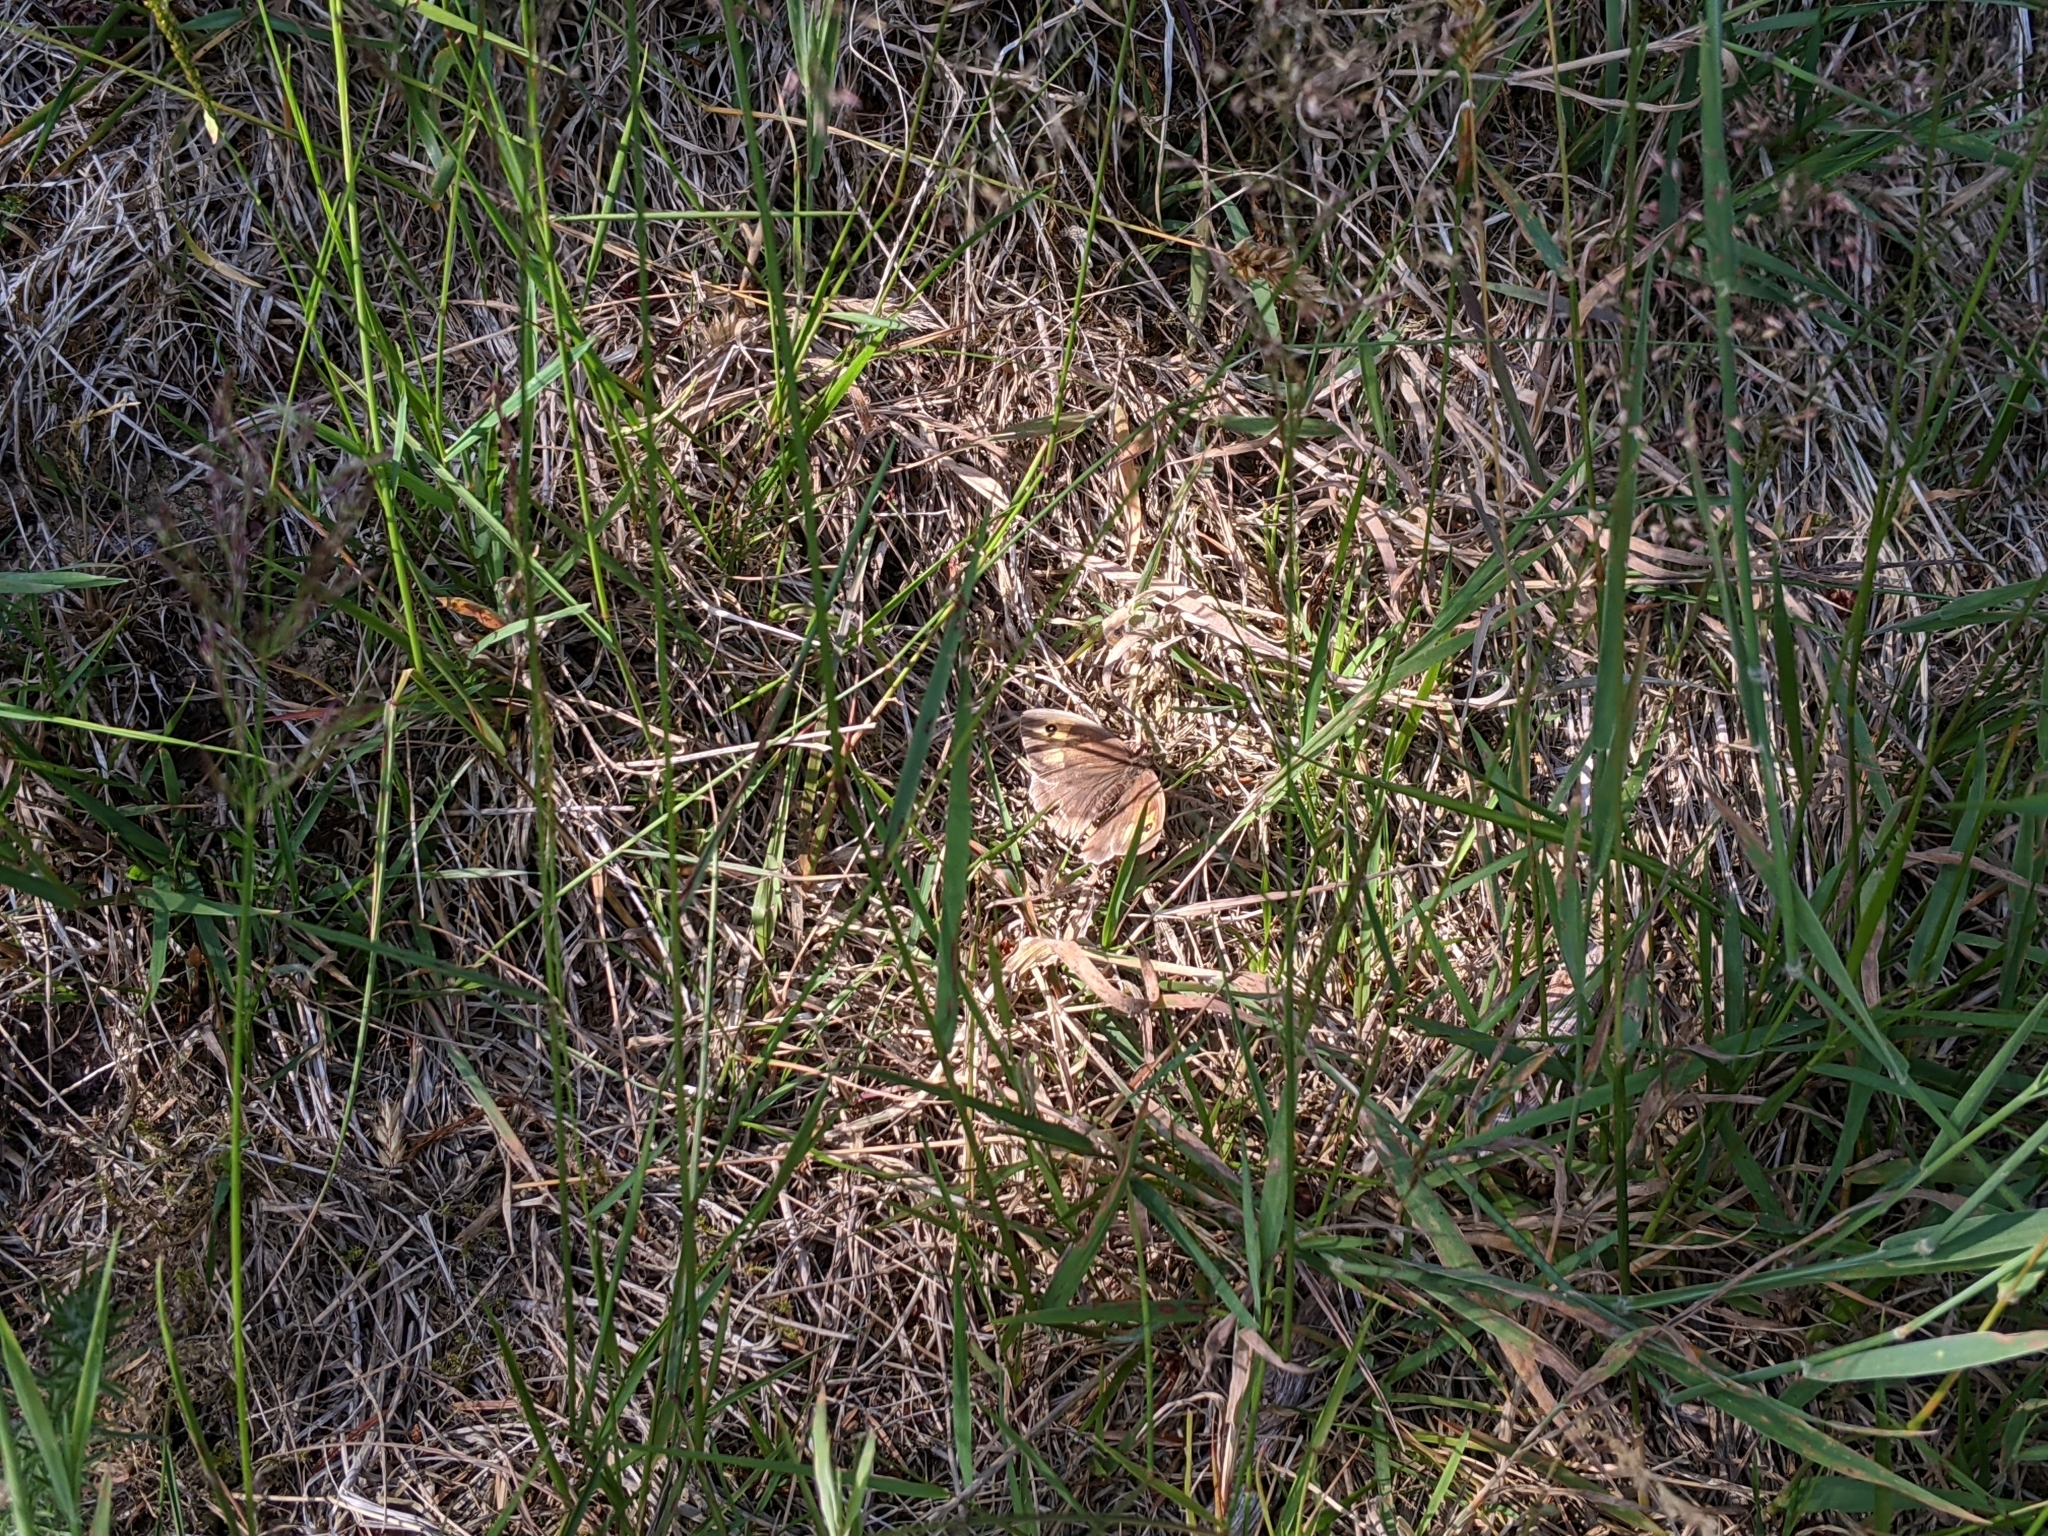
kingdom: Animalia
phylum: Arthropoda
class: Insecta
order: Lepidoptera
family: Nymphalidae
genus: Maniola
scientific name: Maniola jurtina
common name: Meadow brown
